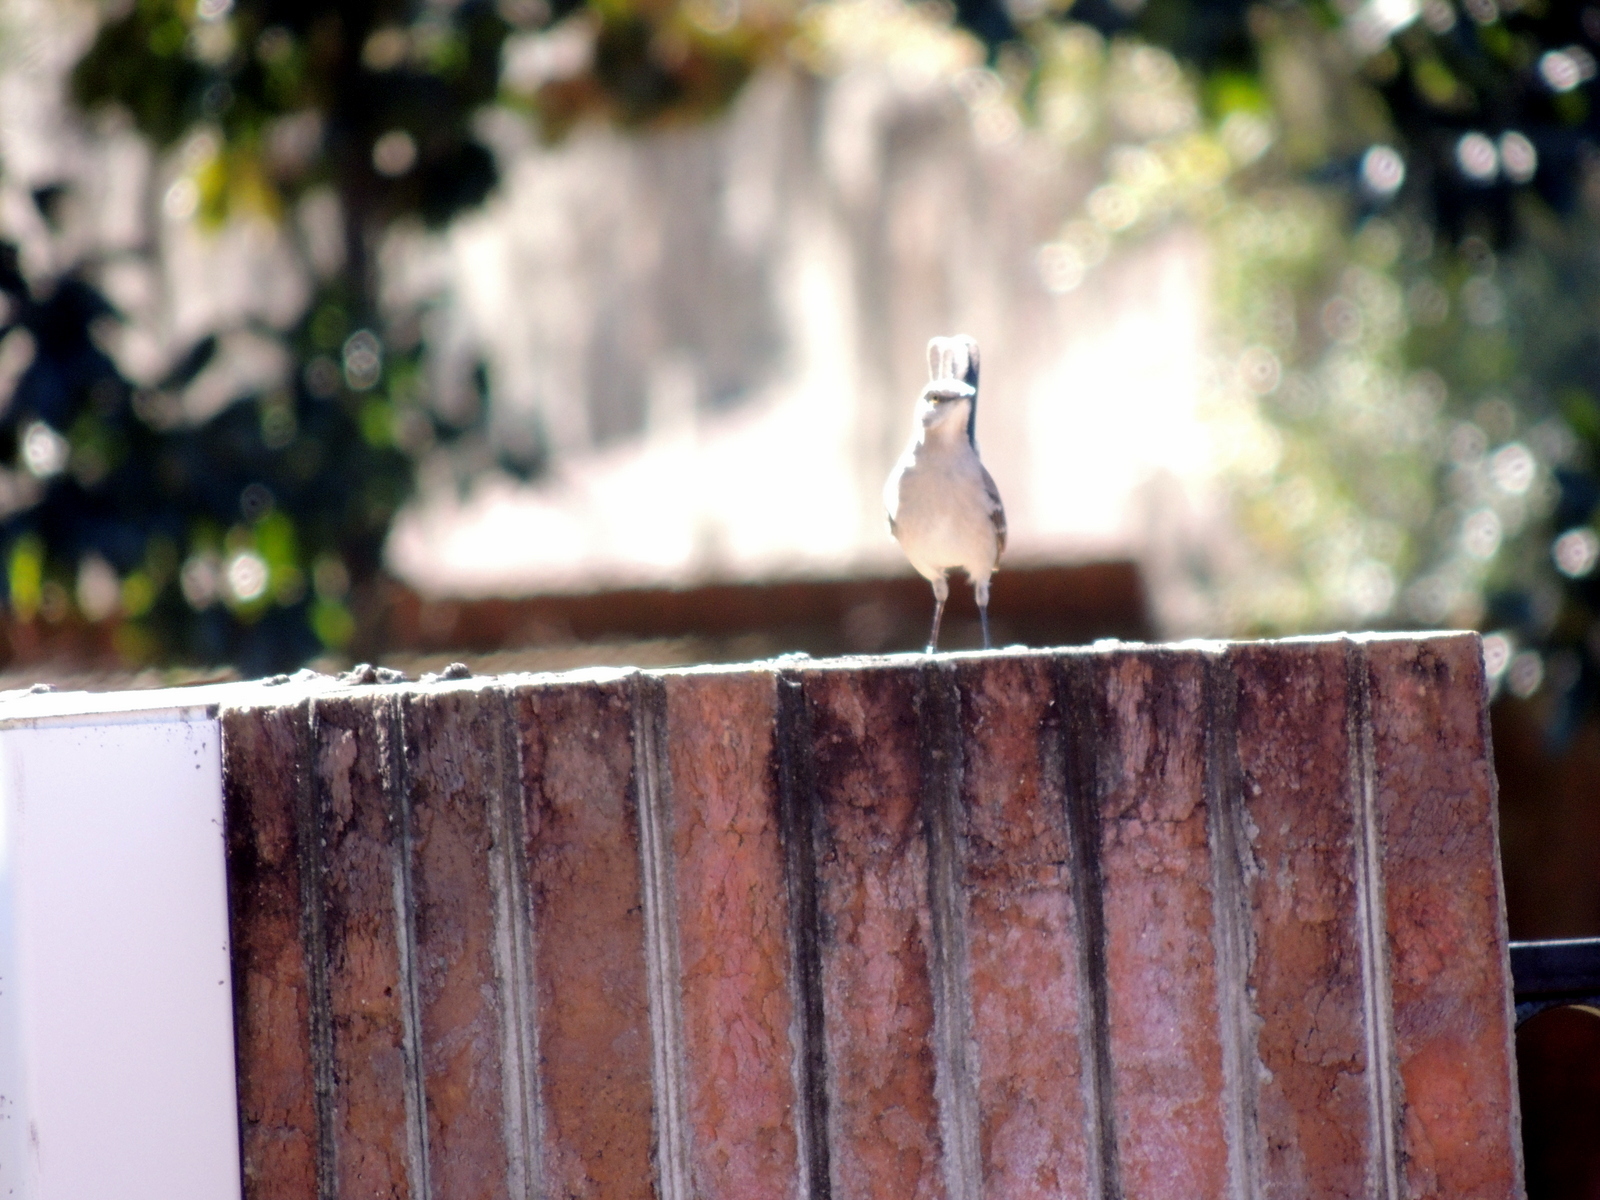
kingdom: Animalia
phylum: Chordata
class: Aves
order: Passeriformes
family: Mimidae
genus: Mimus
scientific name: Mimus polyglottos
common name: Northern mockingbird
